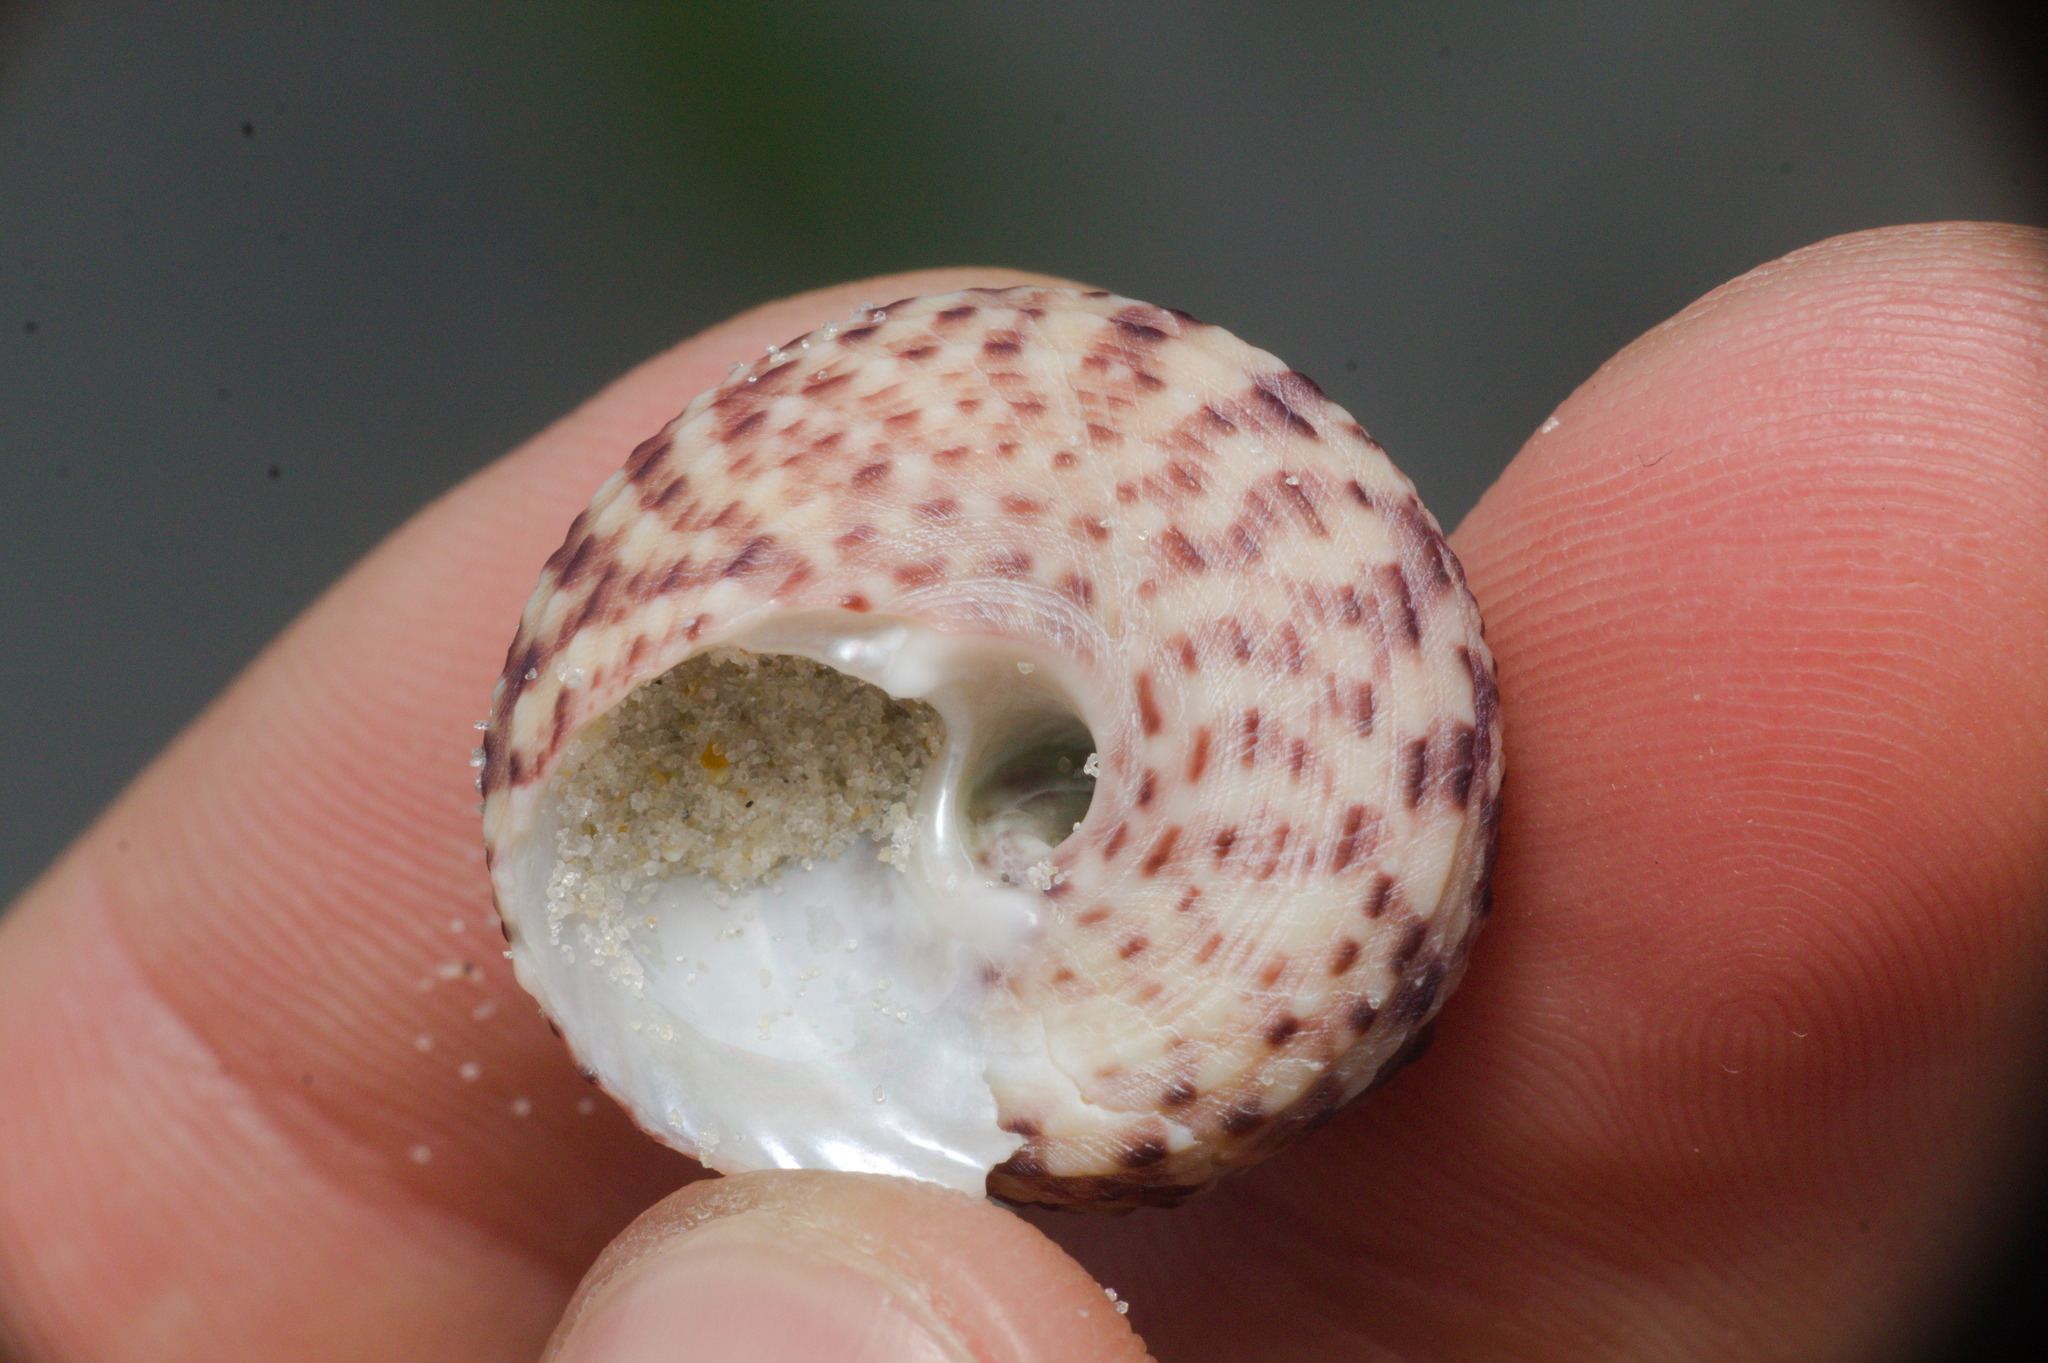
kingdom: Animalia
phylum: Mollusca
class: Gastropoda
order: Trochida
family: Tegulidae
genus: Agathistoma
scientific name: Agathistoma viridulum
